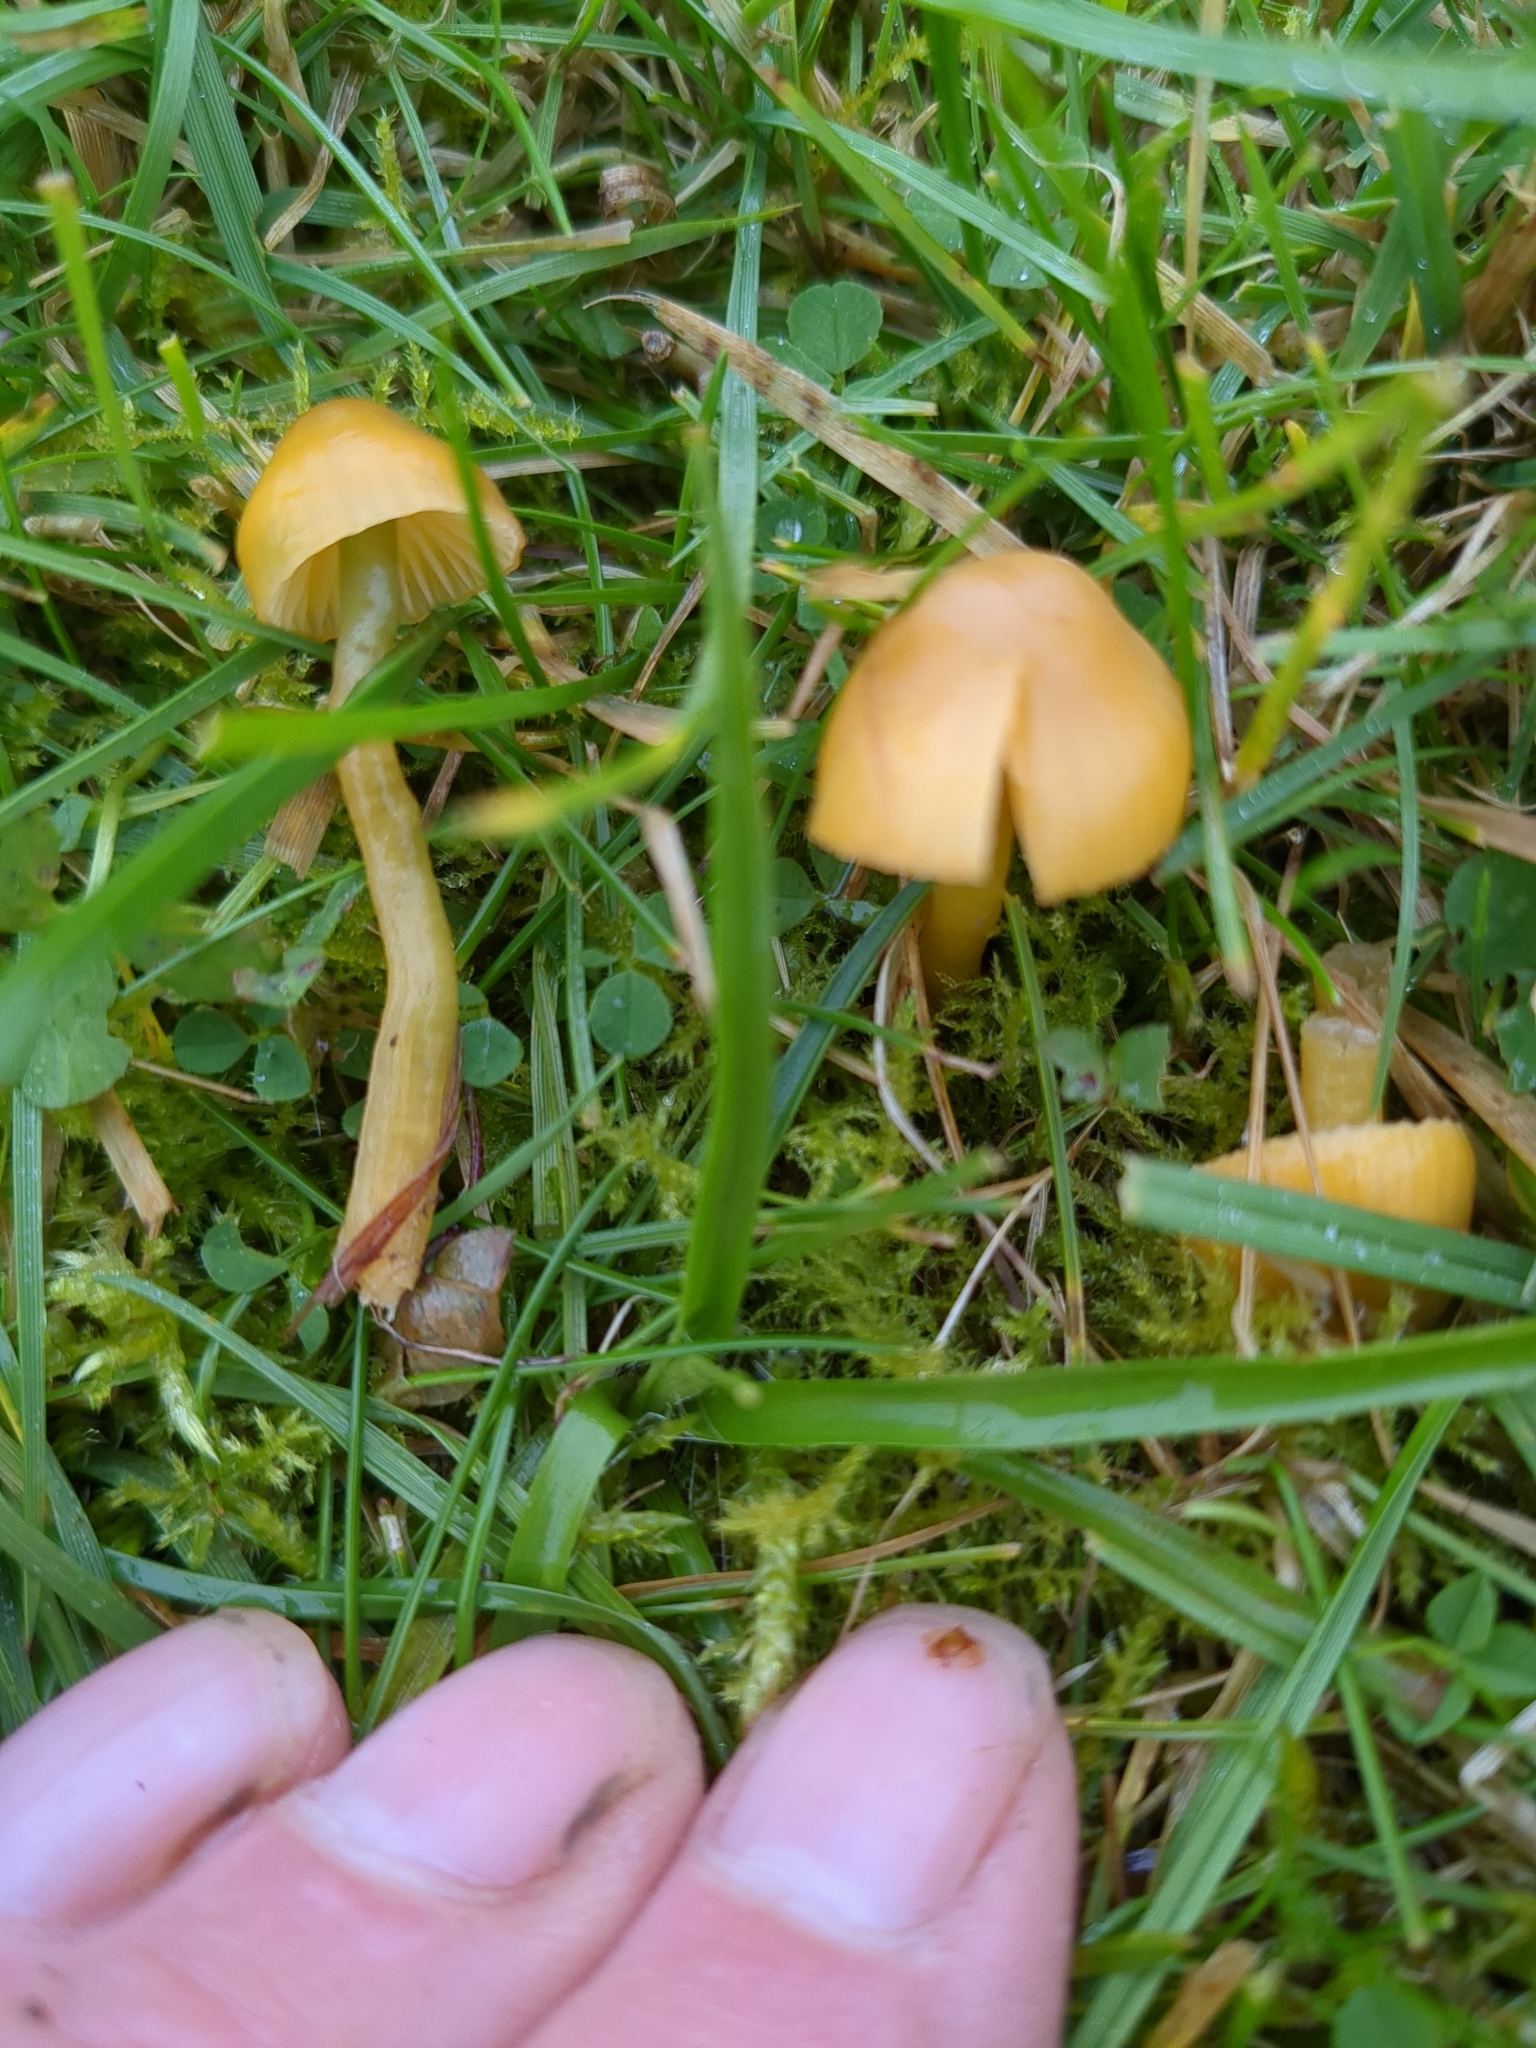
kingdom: Fungi
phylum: Basidiomycota
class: Agaricomycetes
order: Agaricales
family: Hygrophoraceae
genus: Gliophorus
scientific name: Gliophorus psittacinus
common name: Parrot wax-cap
